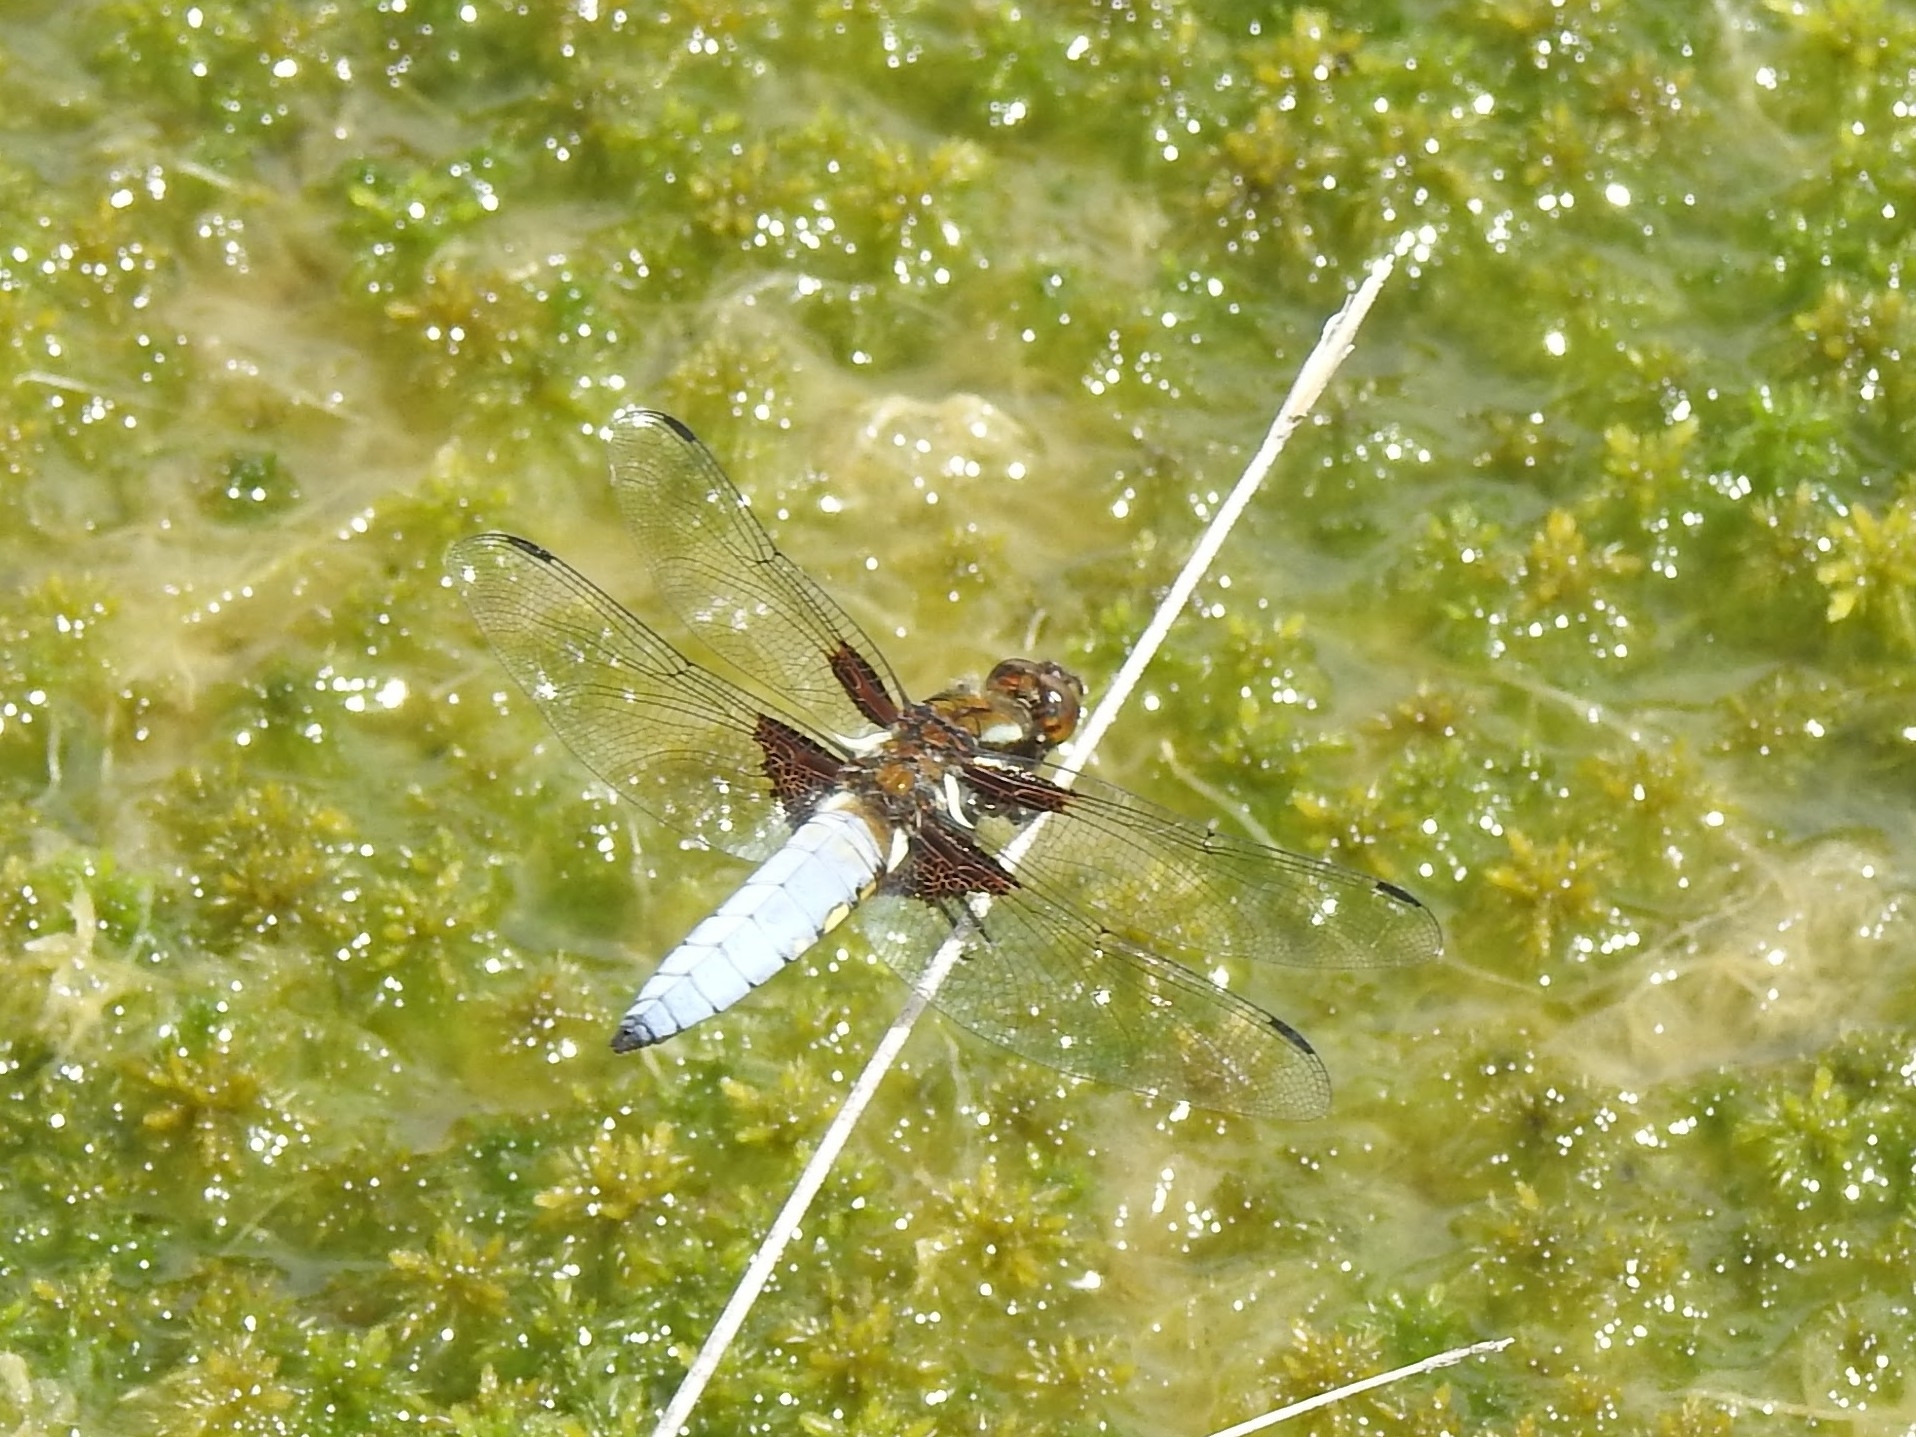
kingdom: Animalia
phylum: Arthropoda
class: Insecta
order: Odonata
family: Libellulidae
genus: Libellula
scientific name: Libellula depressa
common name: Broad-bodied chaser
